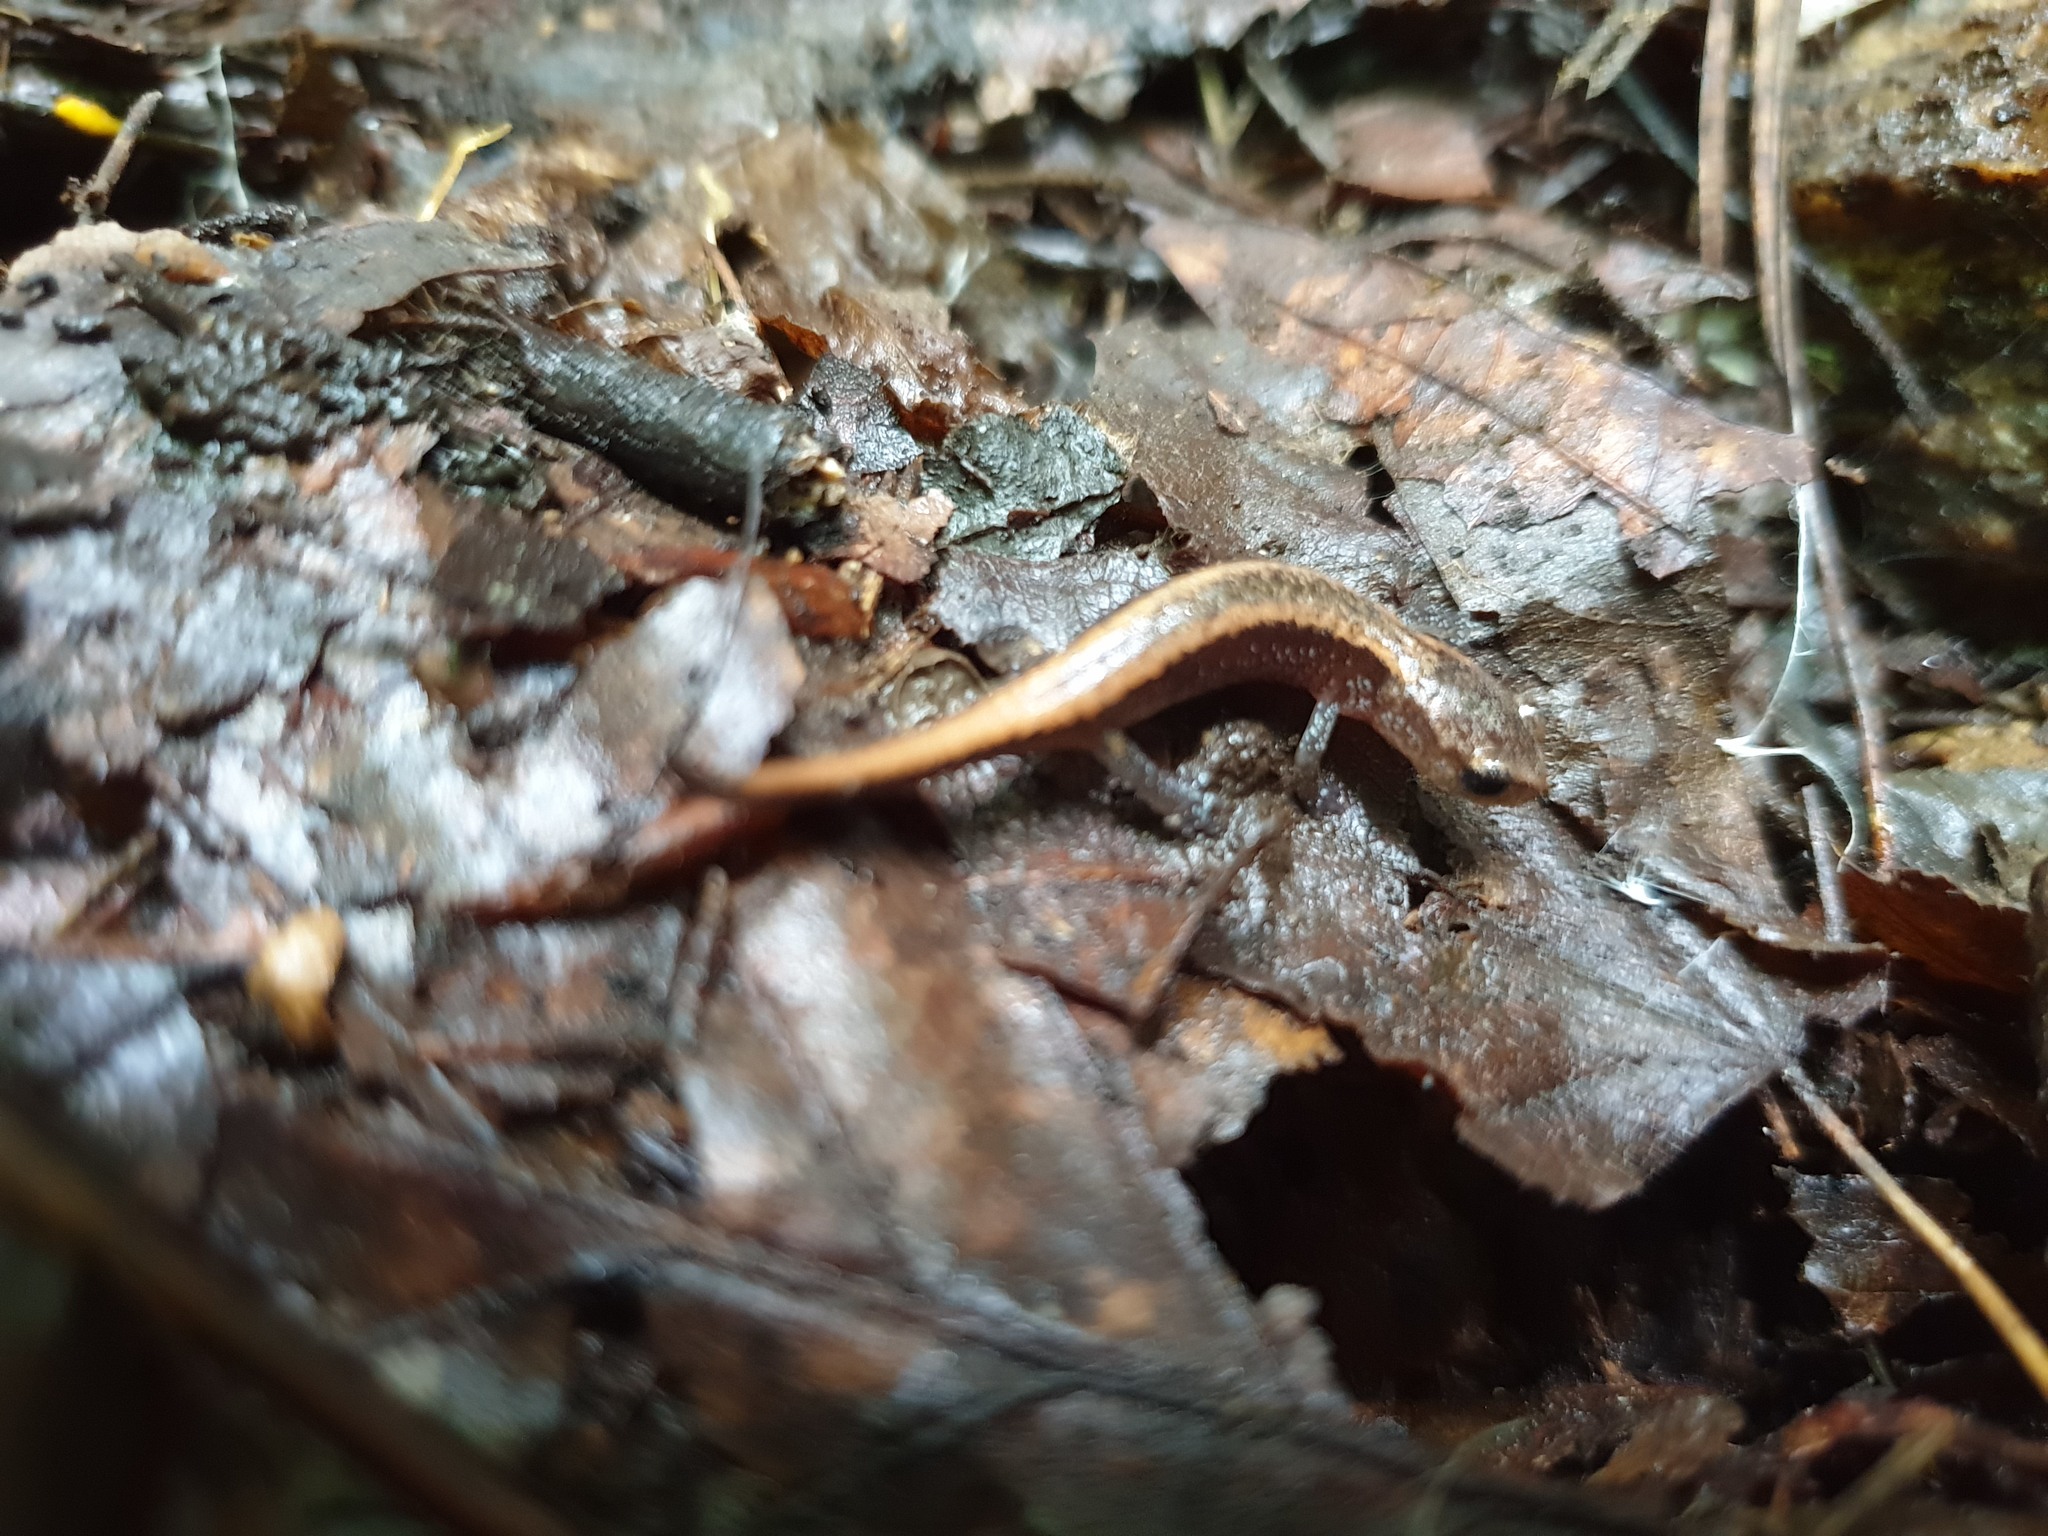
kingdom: Animalia
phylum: Chordata
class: Amphibia
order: Caudata
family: Plethodontidae
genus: Karsenia
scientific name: Karsenia koreana
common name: Korean crevice salamander
